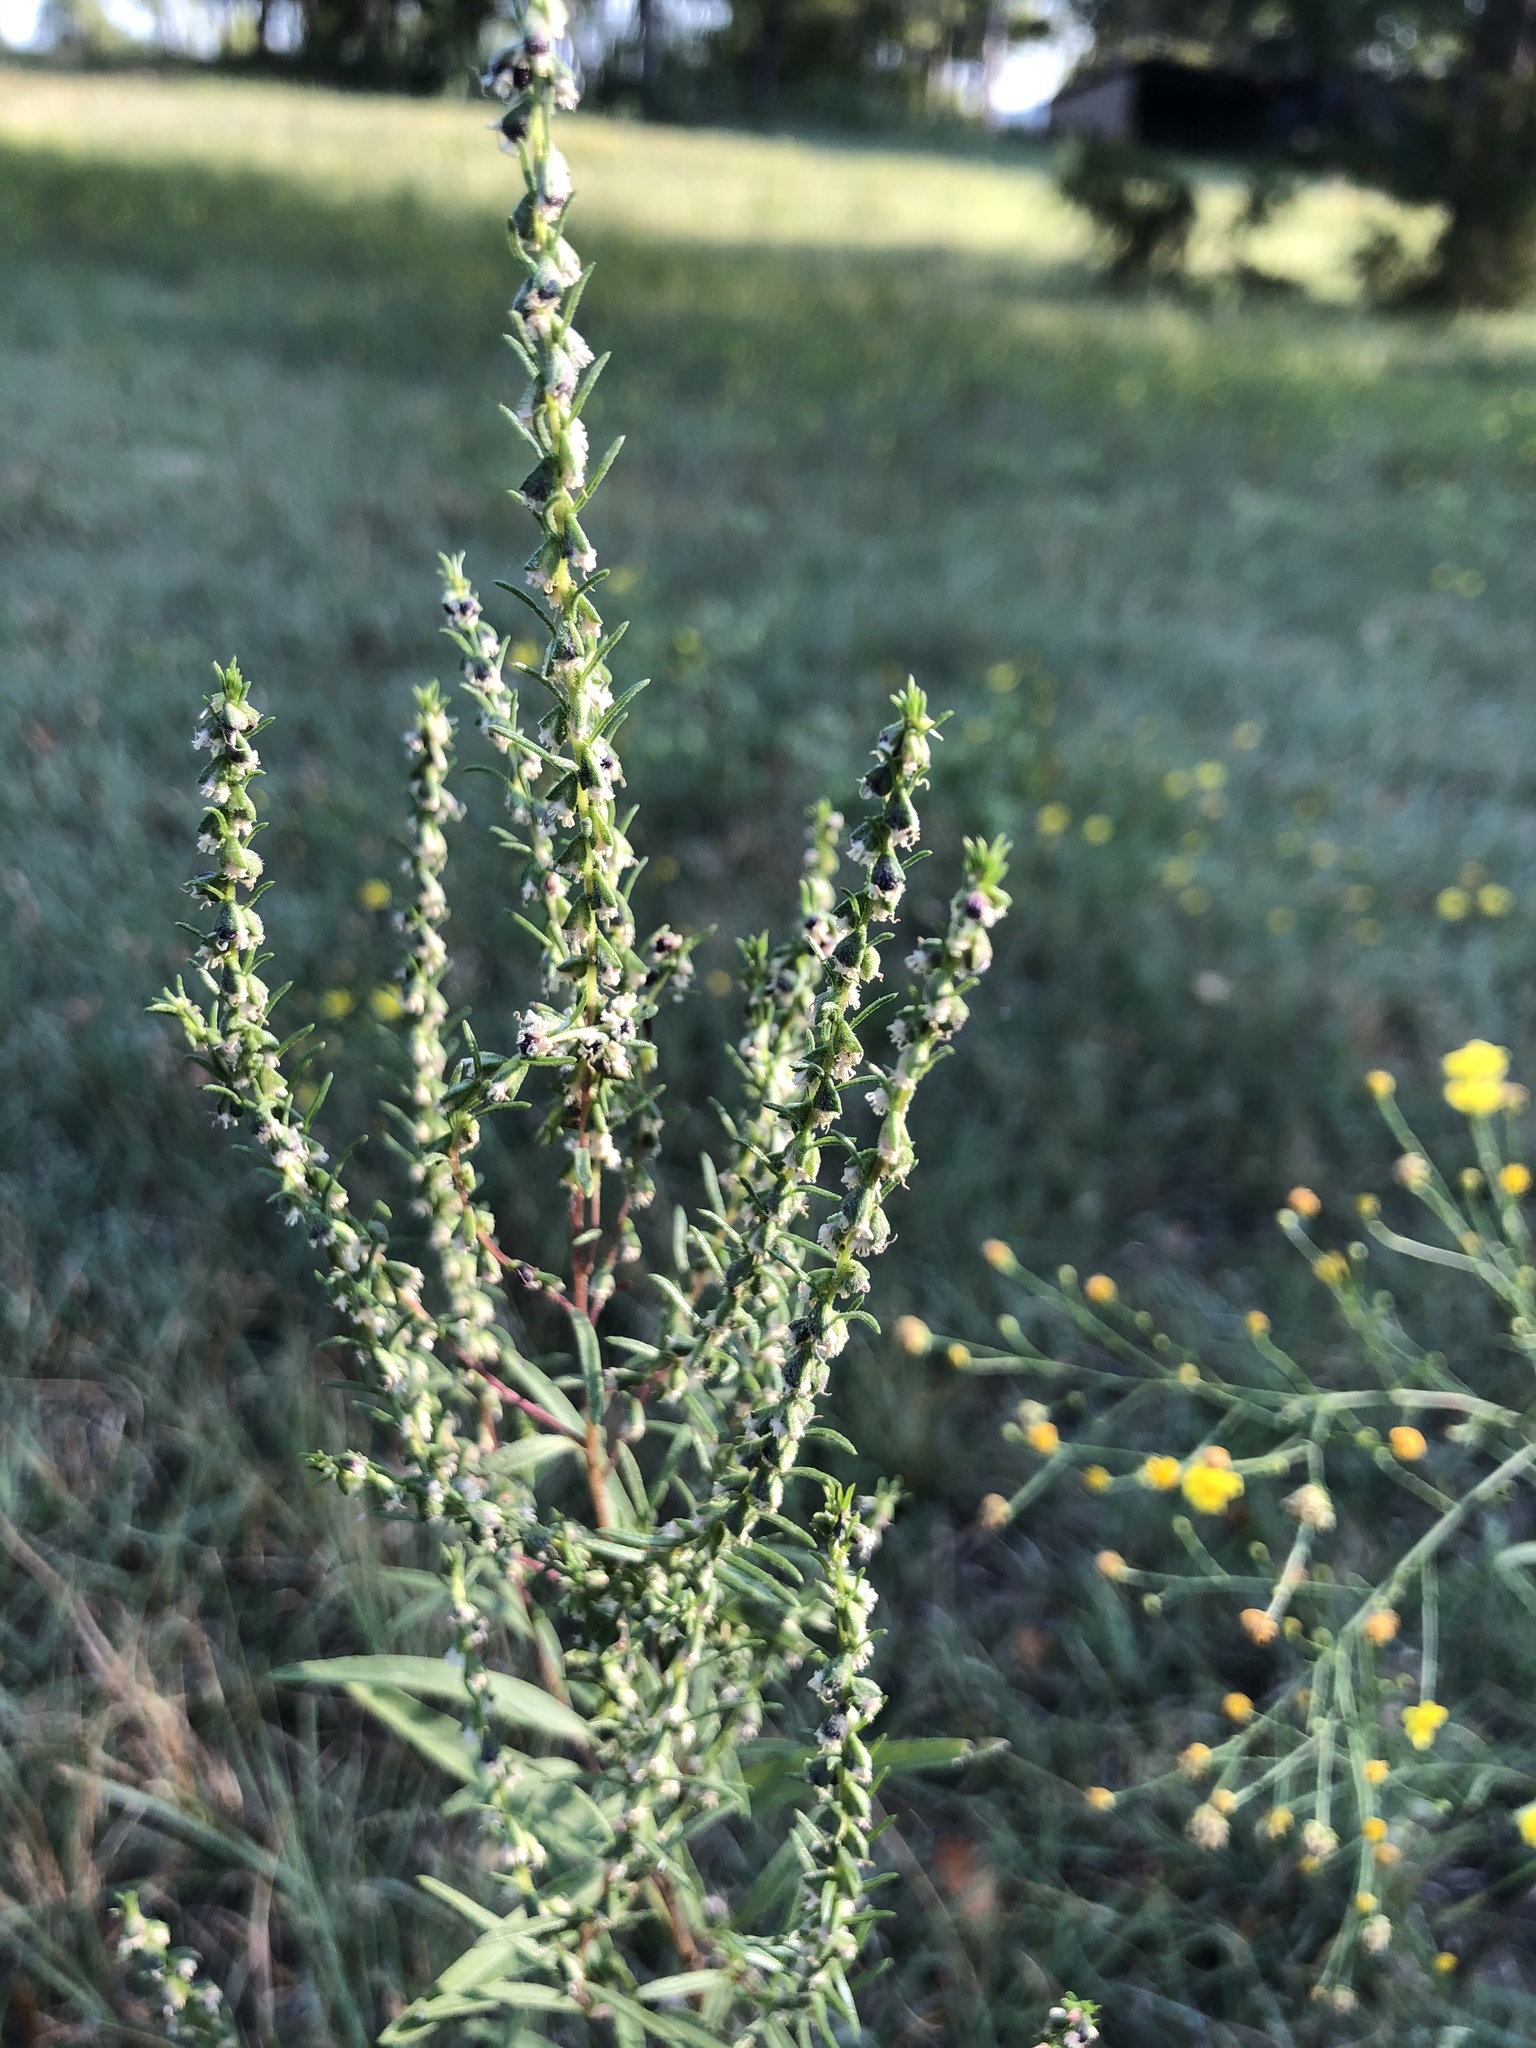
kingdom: Plantae
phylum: Tracheophyta
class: Magnoliopsida
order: Asterales
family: Asteraceae
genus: Iva
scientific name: Iva annua
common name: Marsh-elder
